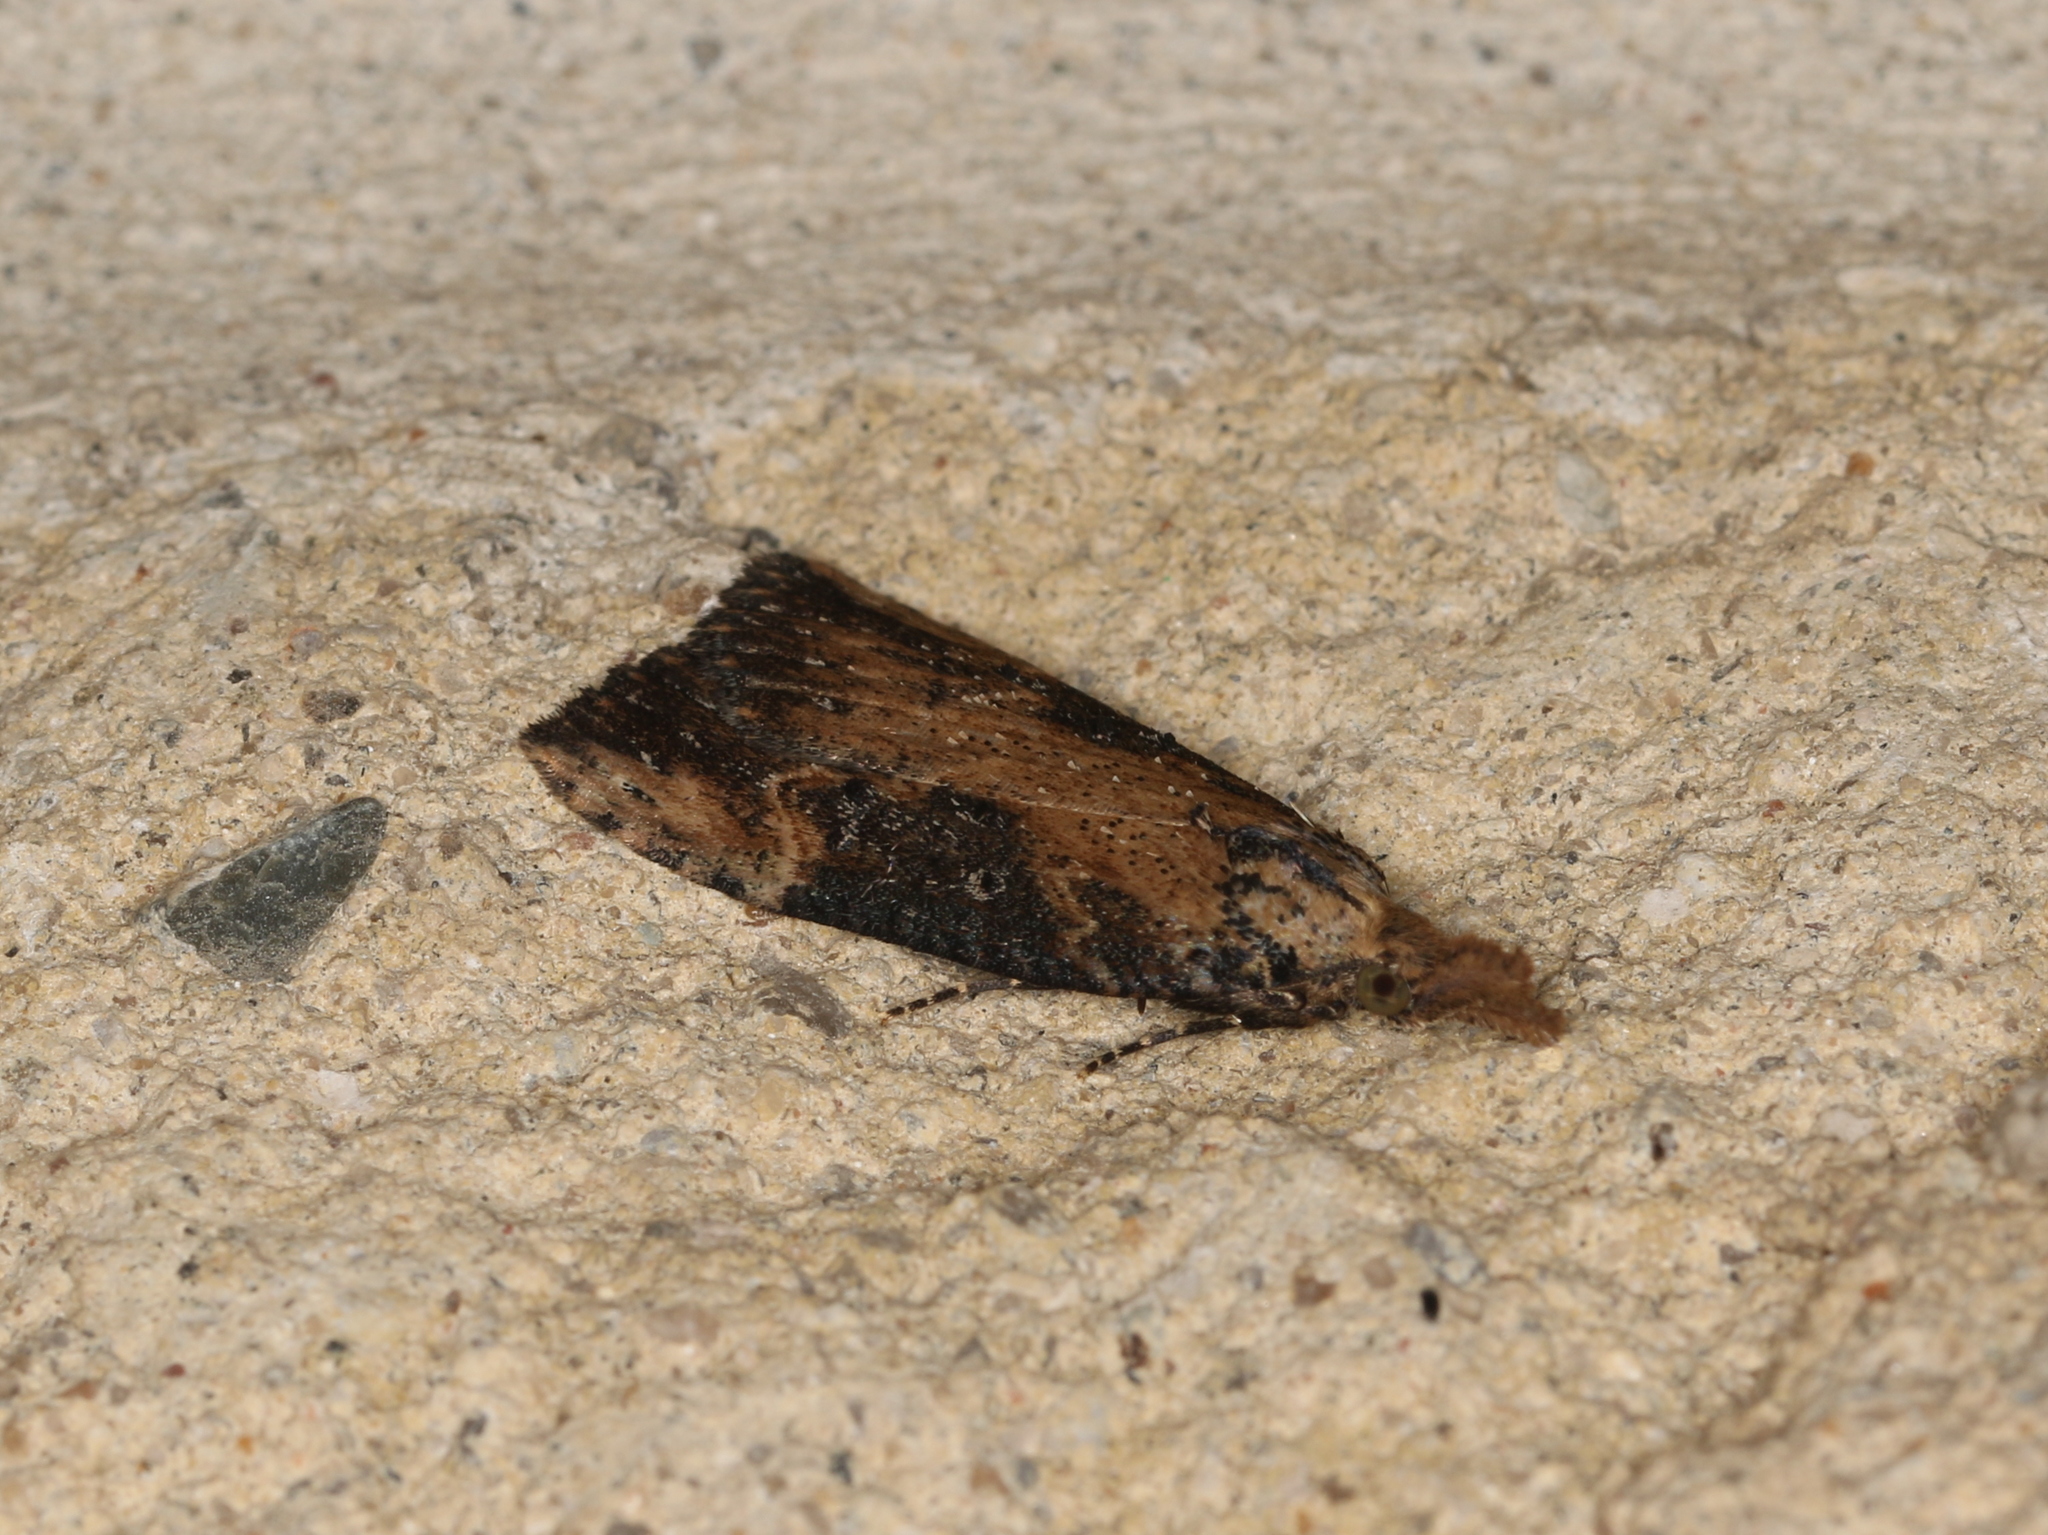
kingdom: Animalia
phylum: Arthropoda
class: Insecta
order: Lepidoptera
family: Erebidae
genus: Hypena
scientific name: Hypena humuli
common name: Hop vine snout
